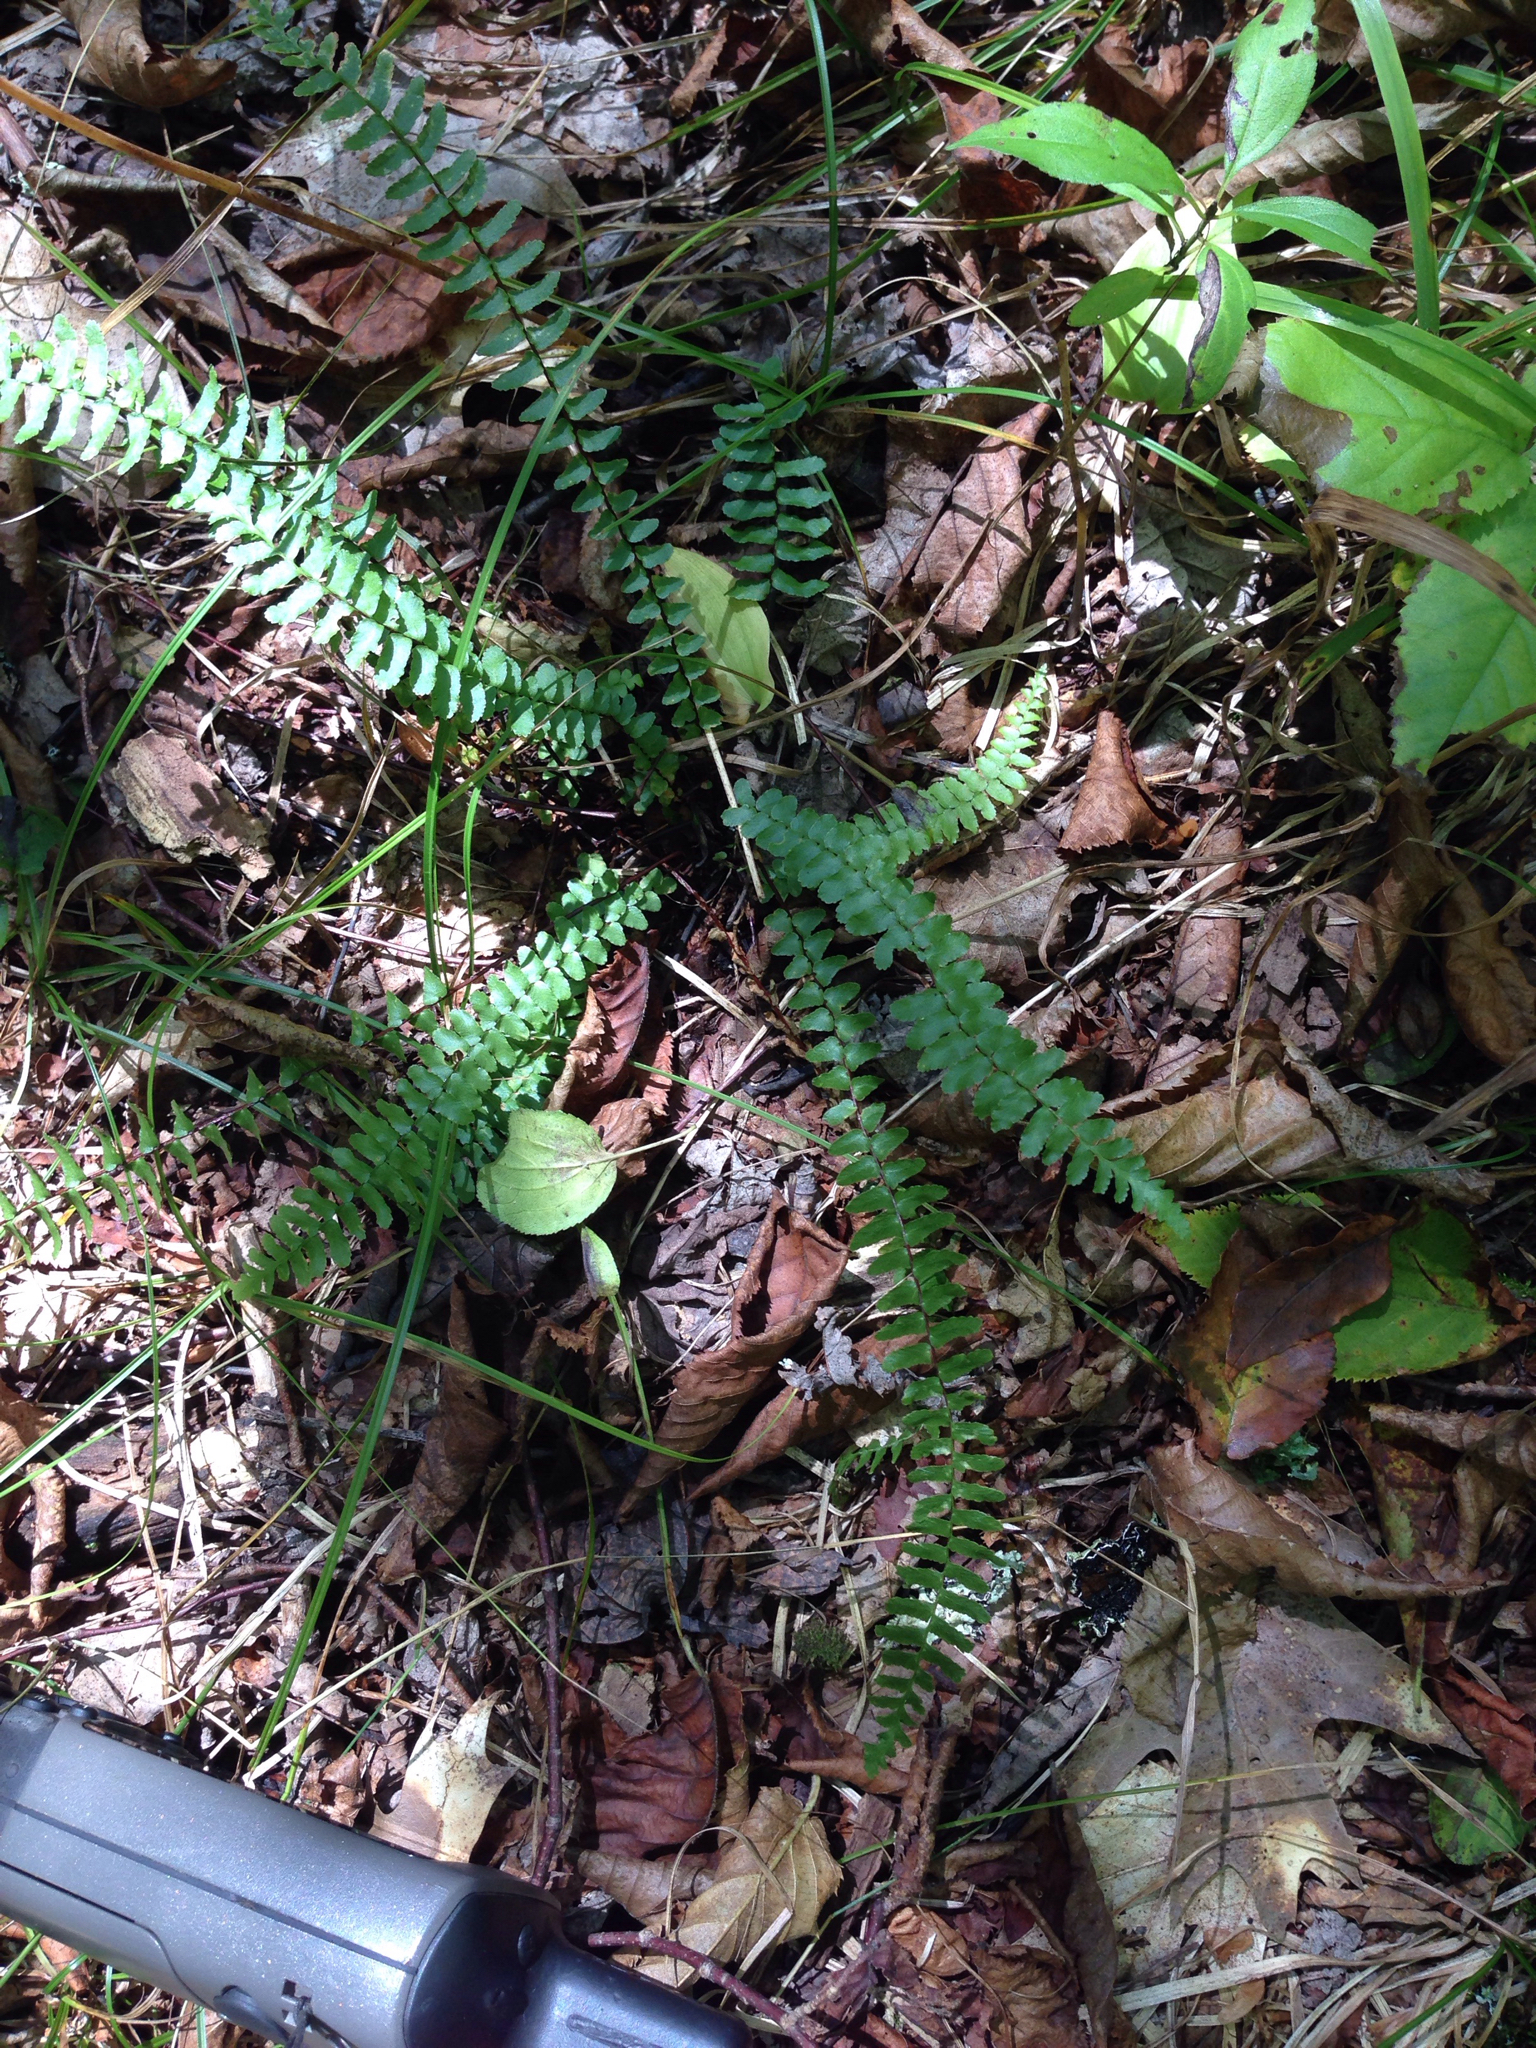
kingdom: Plantae
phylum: Tracheophyta
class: Polypodiopsida
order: Polypodiales
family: Aspleniaceae
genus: Asplenium
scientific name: Asplenium platyneuron
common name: Ebony spleenwort
